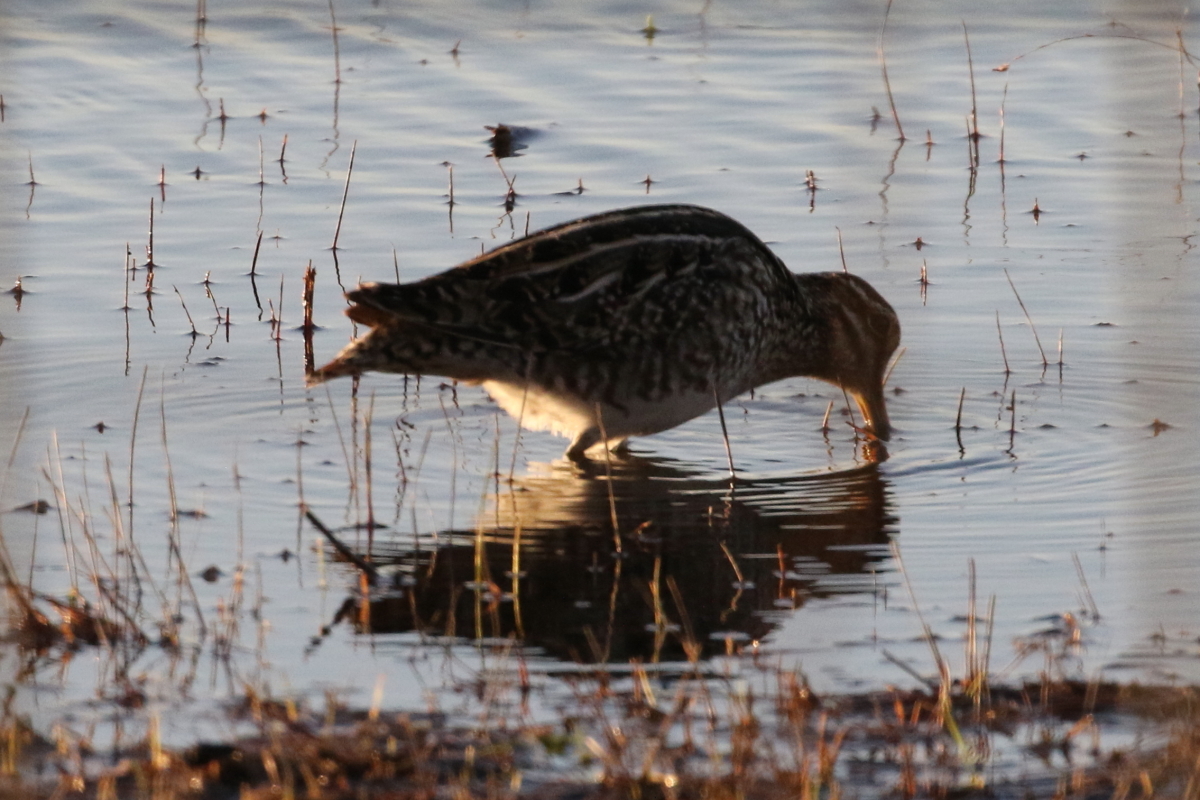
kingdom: Animalia
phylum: Chordata
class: Aves
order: Charadriiformes
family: Scolopacidae
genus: Gallinago
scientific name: Gallinago delicata
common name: Wilson's snipe
